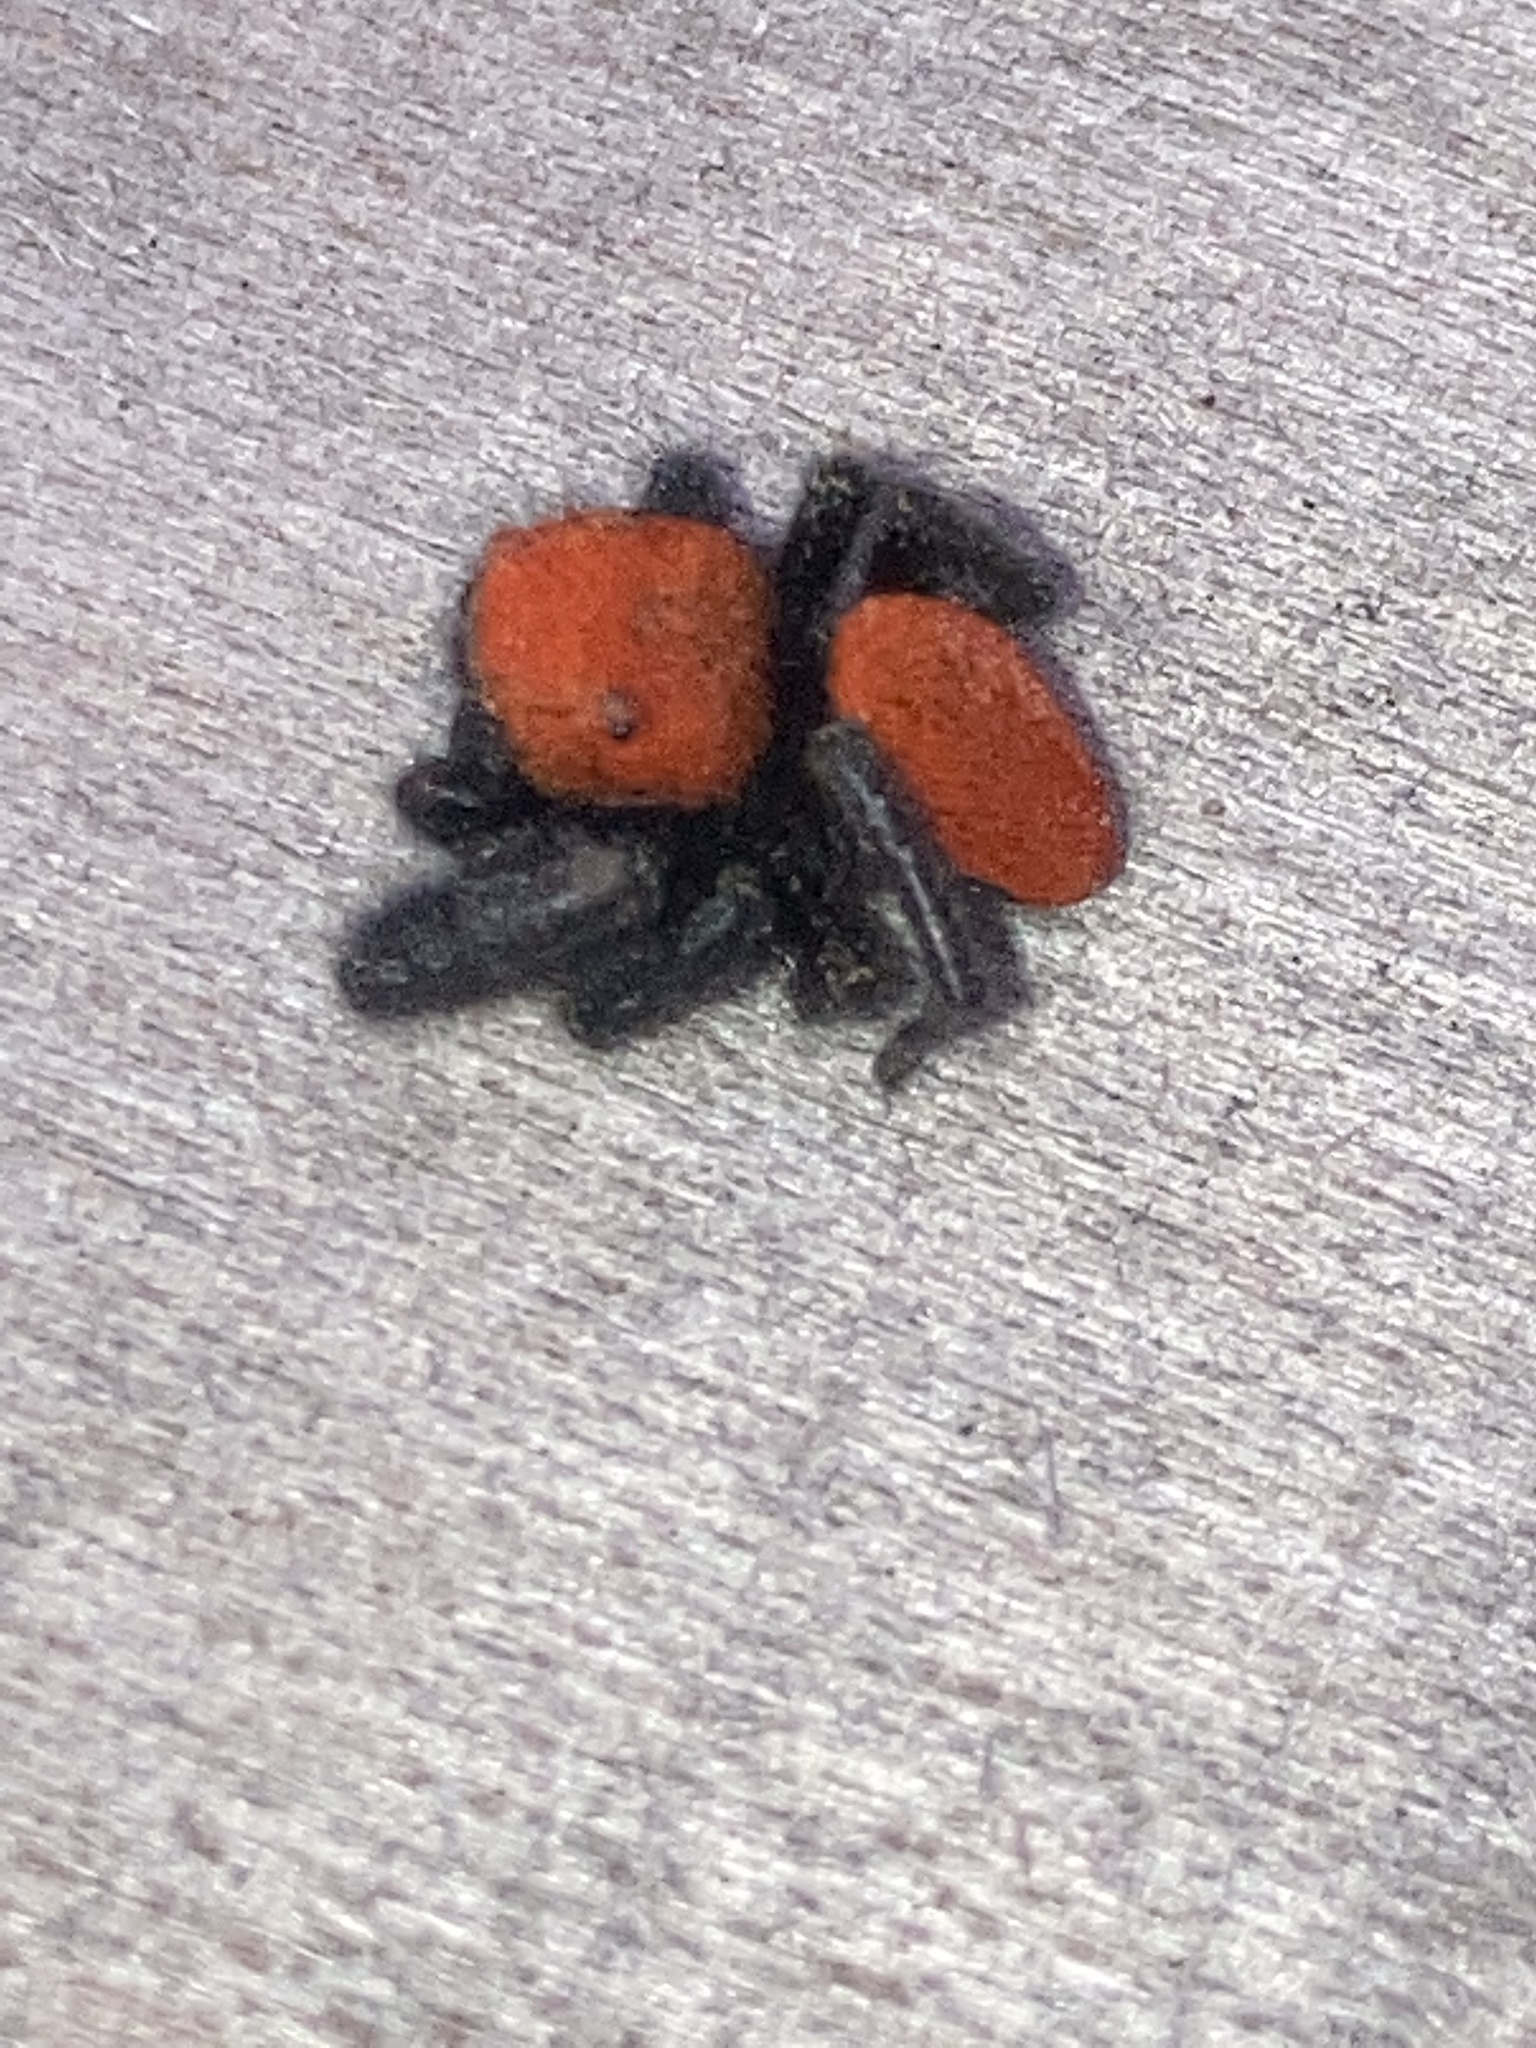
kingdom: Animalia
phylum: Arthropoda
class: Arachnida
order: Araneae
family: Salticidae
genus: Phidippus
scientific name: Phidippus cardinalis
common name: Cardinal jumper
